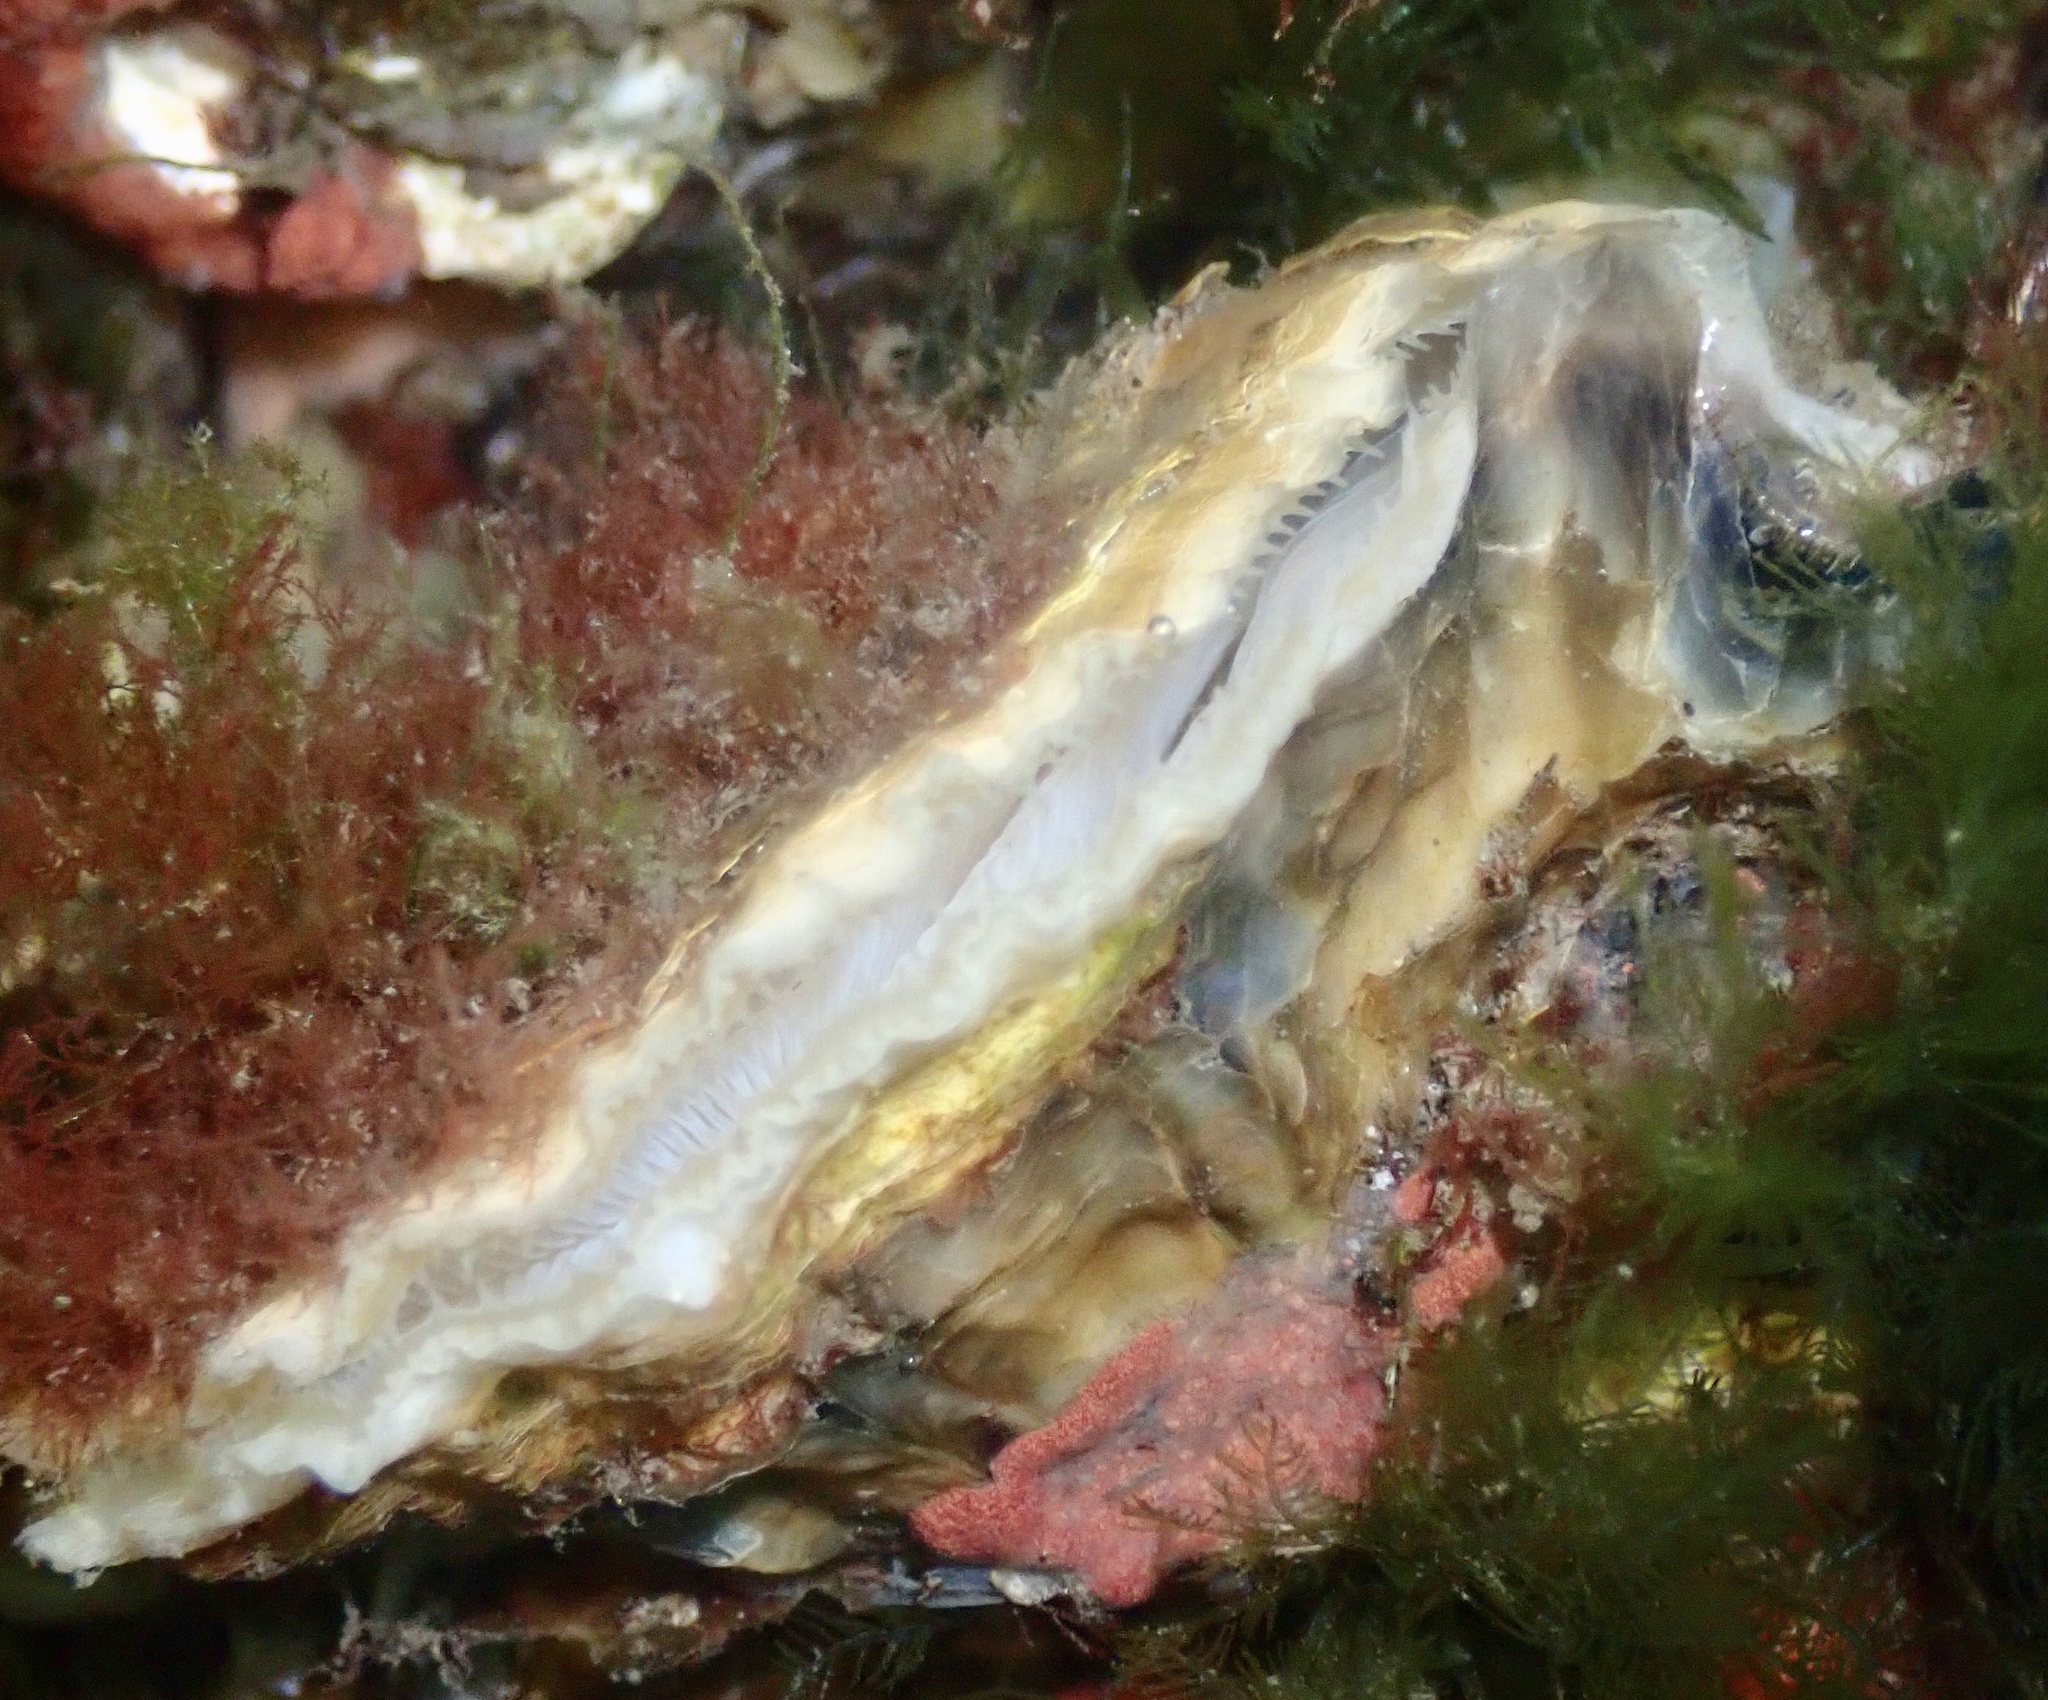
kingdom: Animalia
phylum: Mollusca
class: Bivalvia
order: Ostreida
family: Ostreidae
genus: Ostrea
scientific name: Ostrea edulis
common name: Flat oyster
